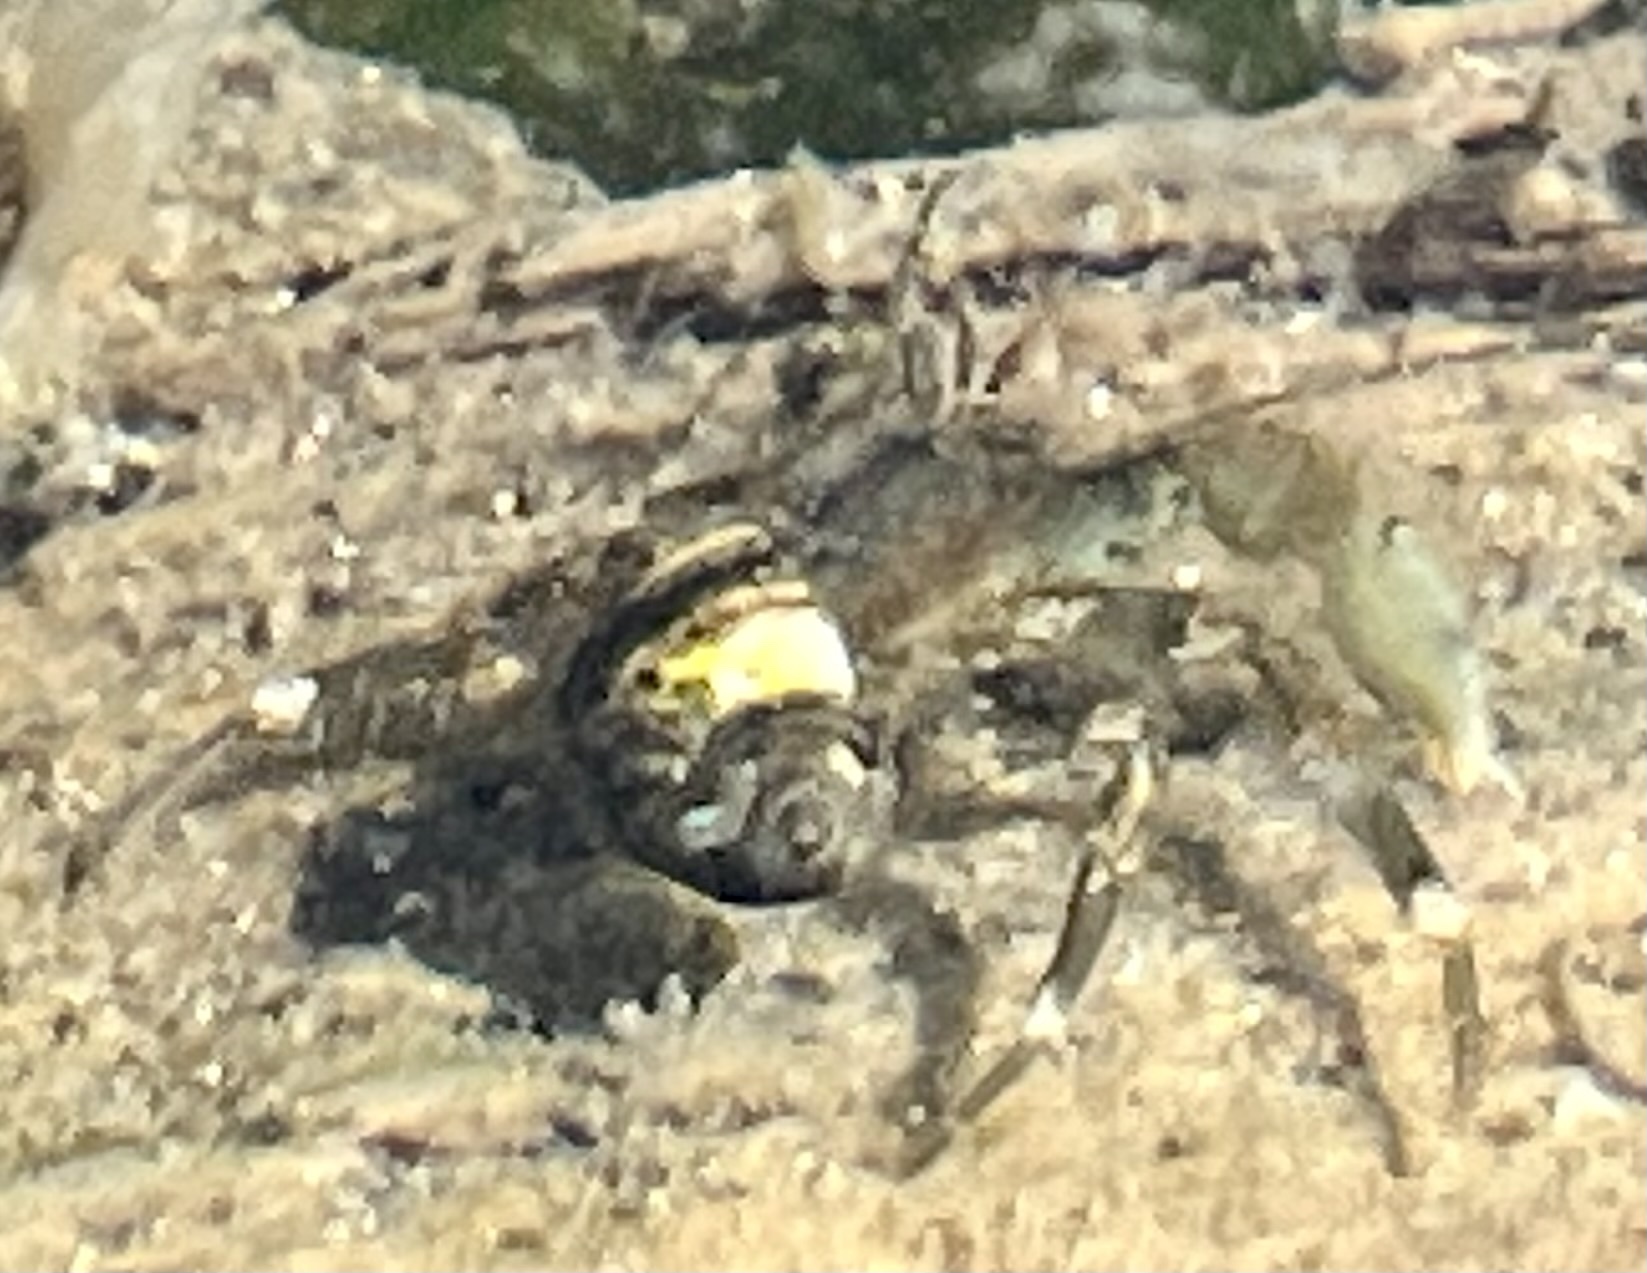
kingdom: Animalia
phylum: Arthropoda
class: Malacostraca
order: Decapoda
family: Paguridae
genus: Pagurus
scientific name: Pagurus hirsutiusculus
